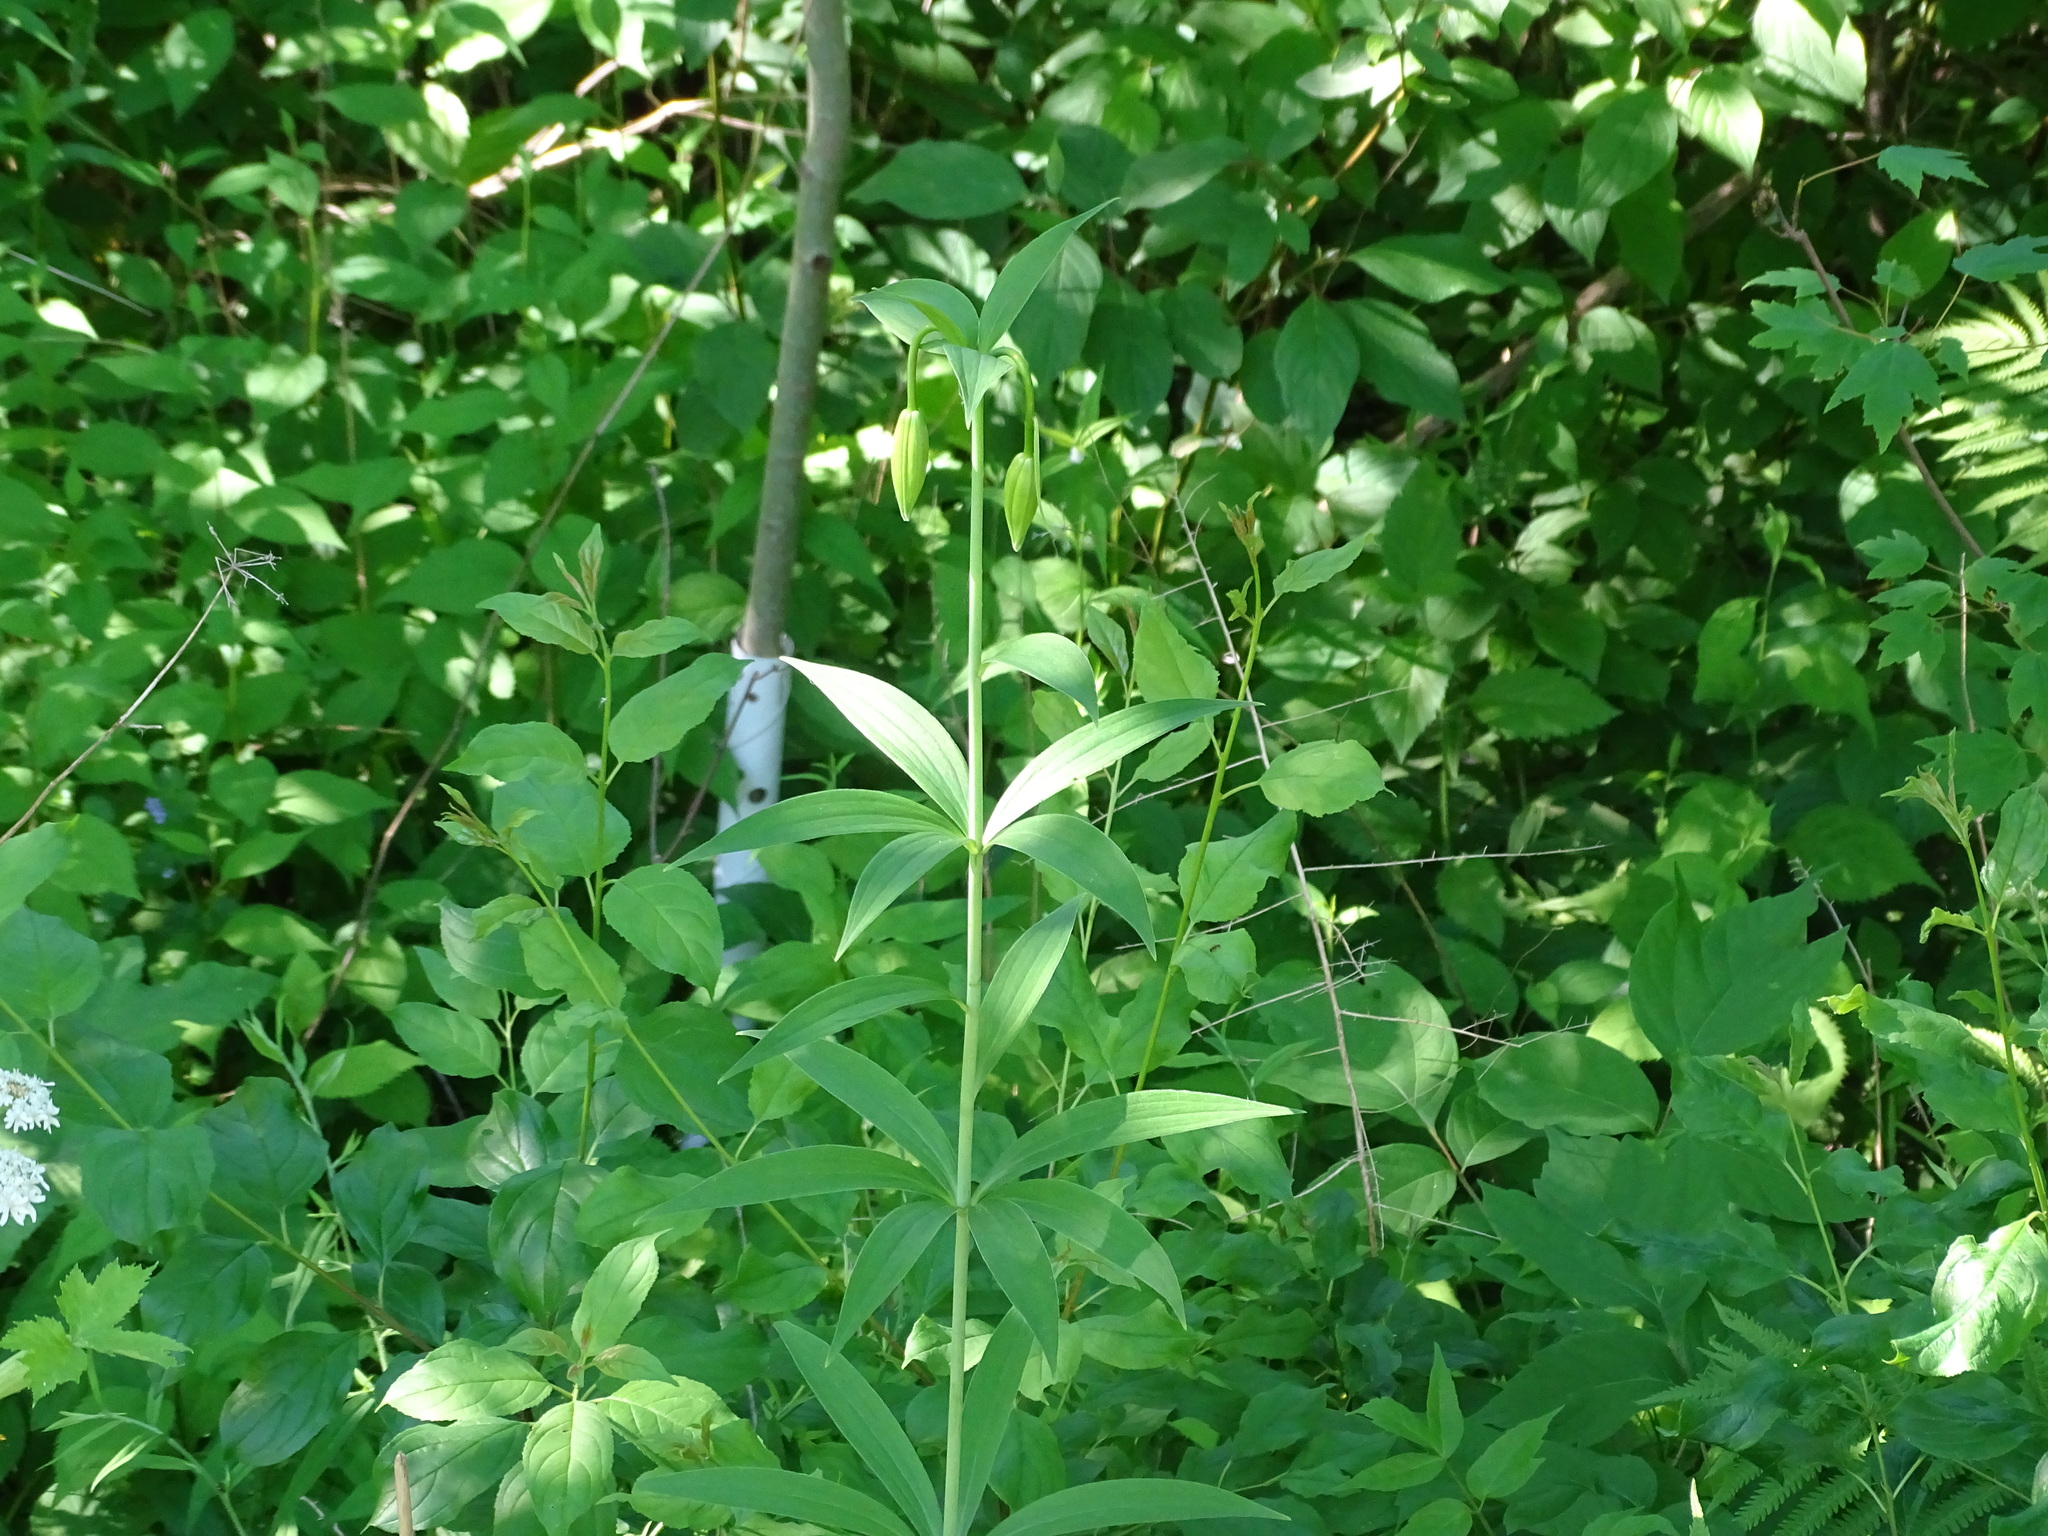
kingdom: Plantae
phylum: Tracheophyta
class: Liliopsida
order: Liliales
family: Liliaceae
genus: Lilium
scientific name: Lilium michiganense
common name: Michigan lily
